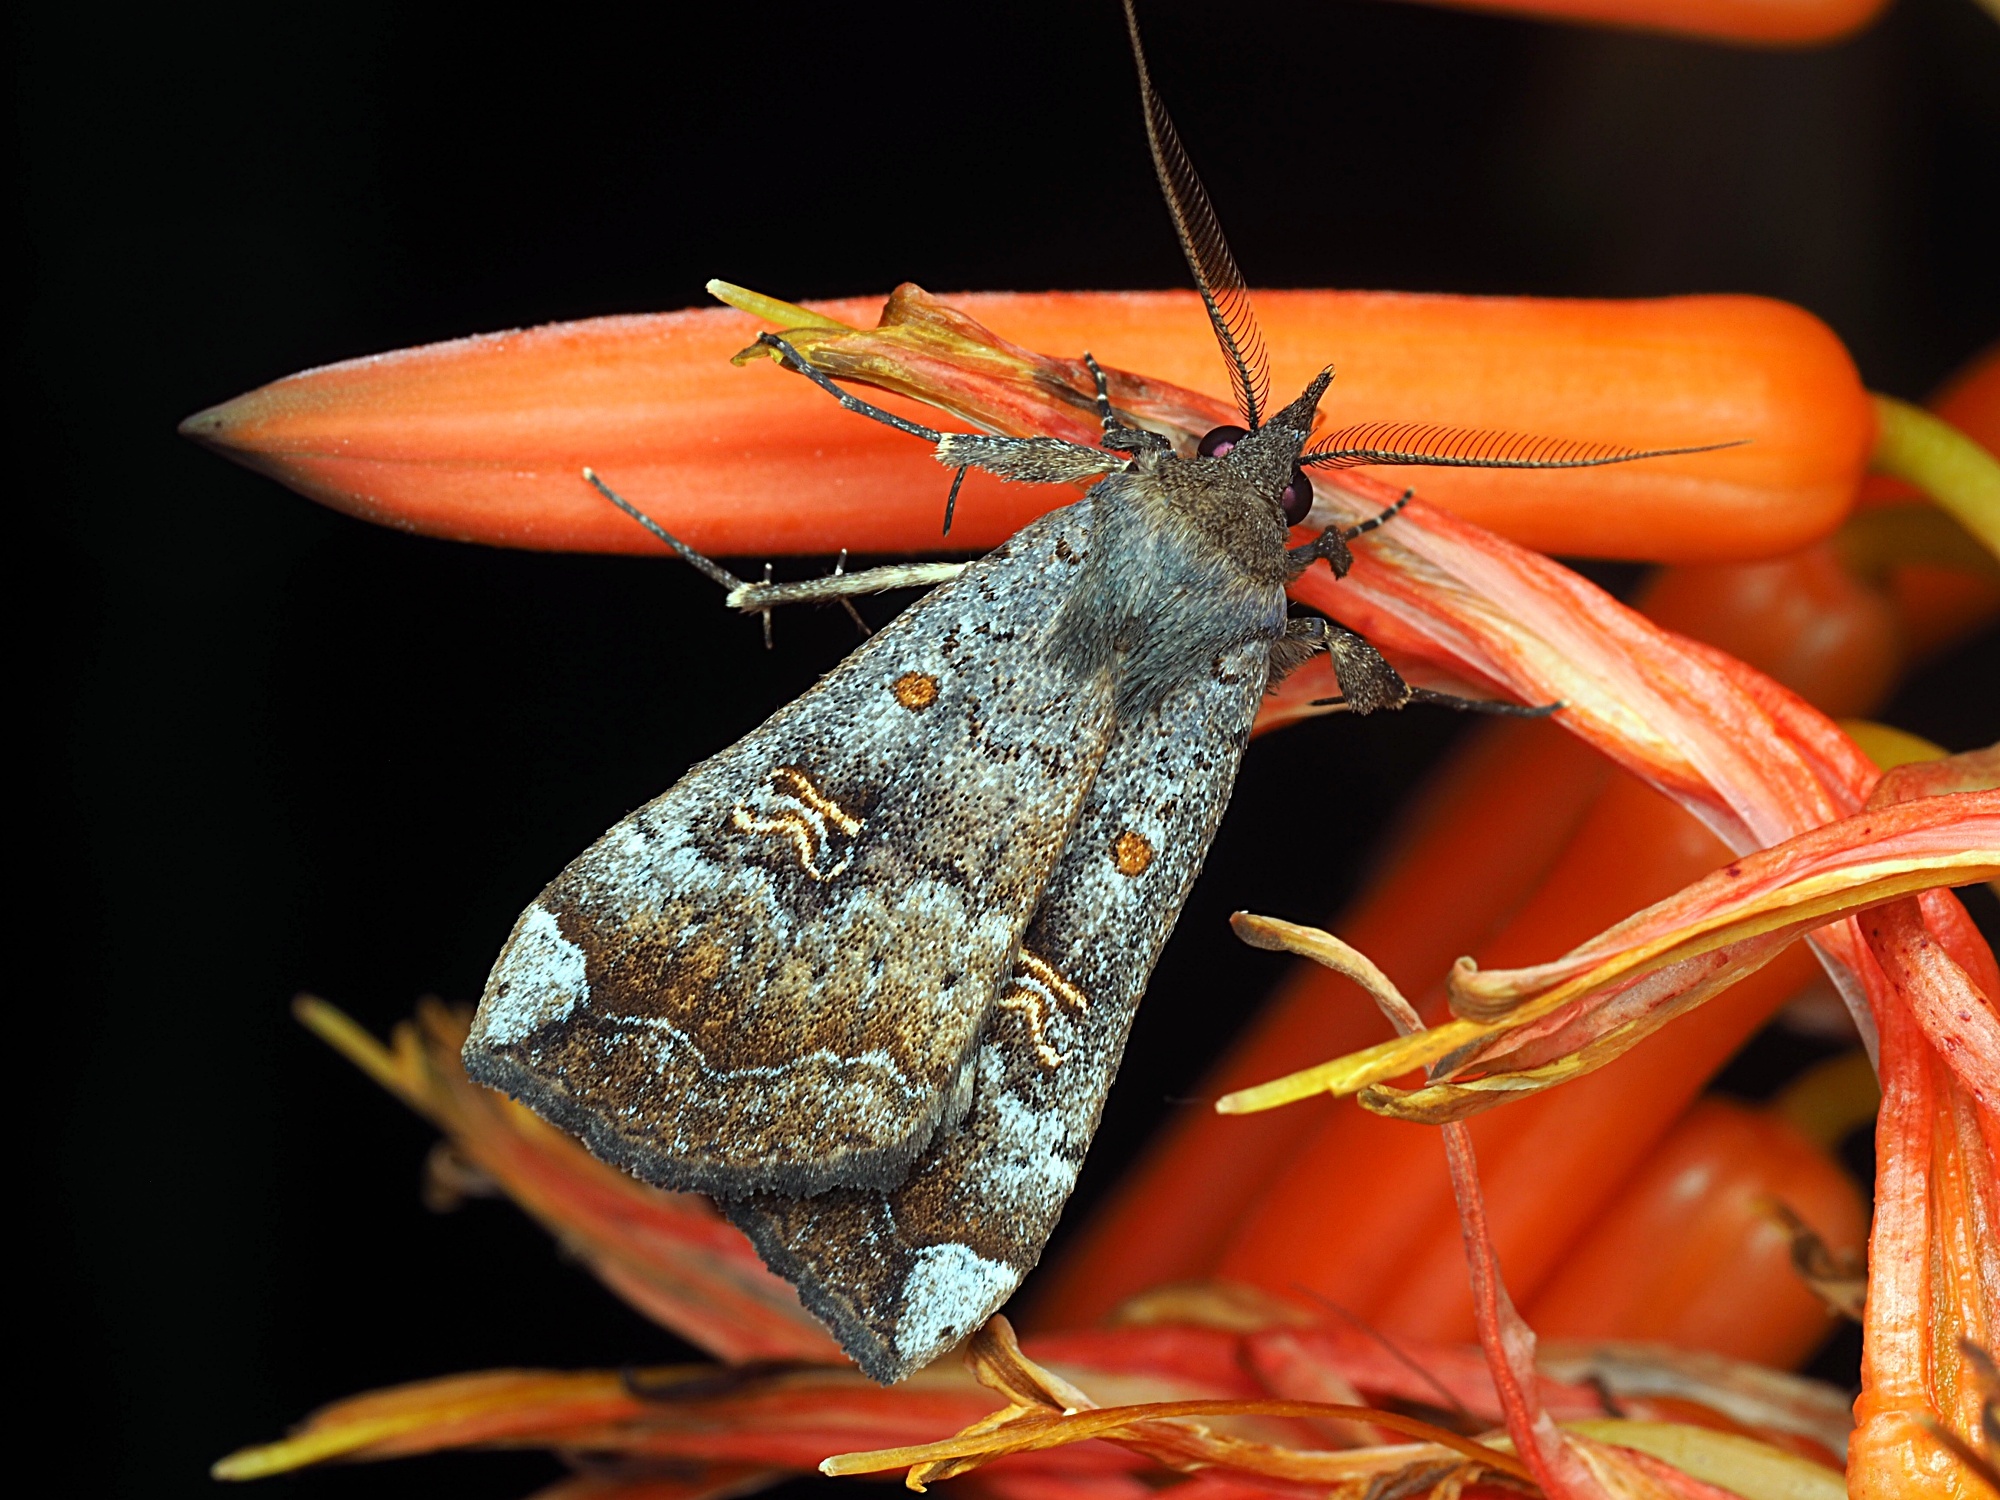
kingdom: Animalia
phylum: Arthropoda
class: Insecta
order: Lepidoptera
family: Erebidae
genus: Rhapsa
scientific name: Rhapsa scotosialis
